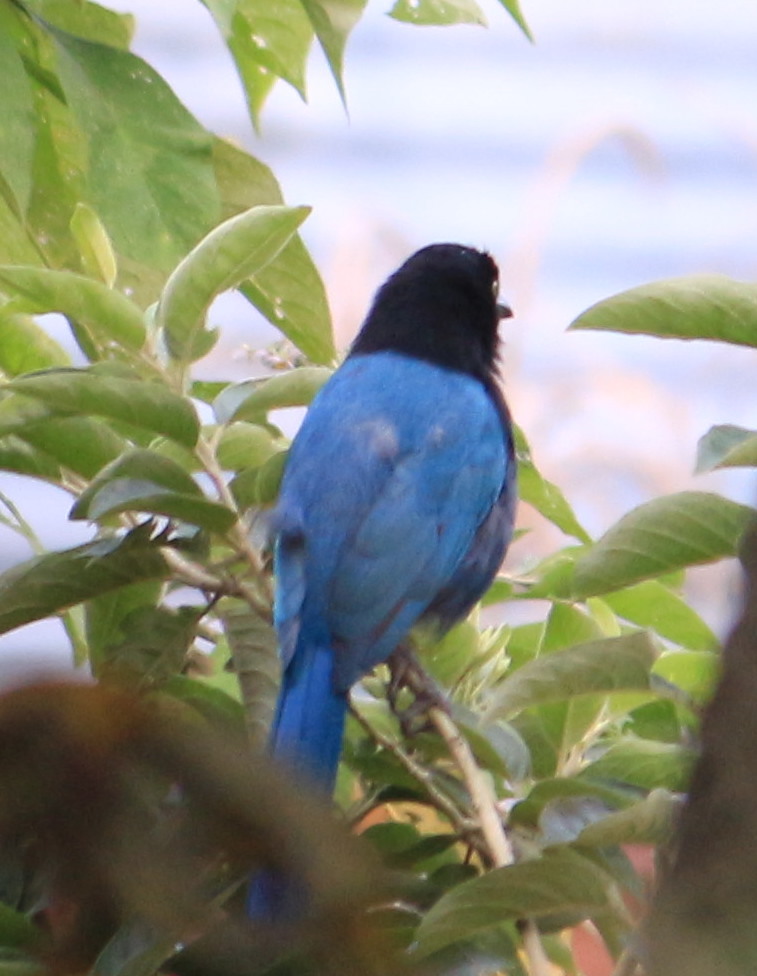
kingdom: Animalia
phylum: Chordata
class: Aves
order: Passeriformes
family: Corvidae
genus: Cyanocorax
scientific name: Cyanocorax melanocyaneus
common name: Bushy-crested jay
